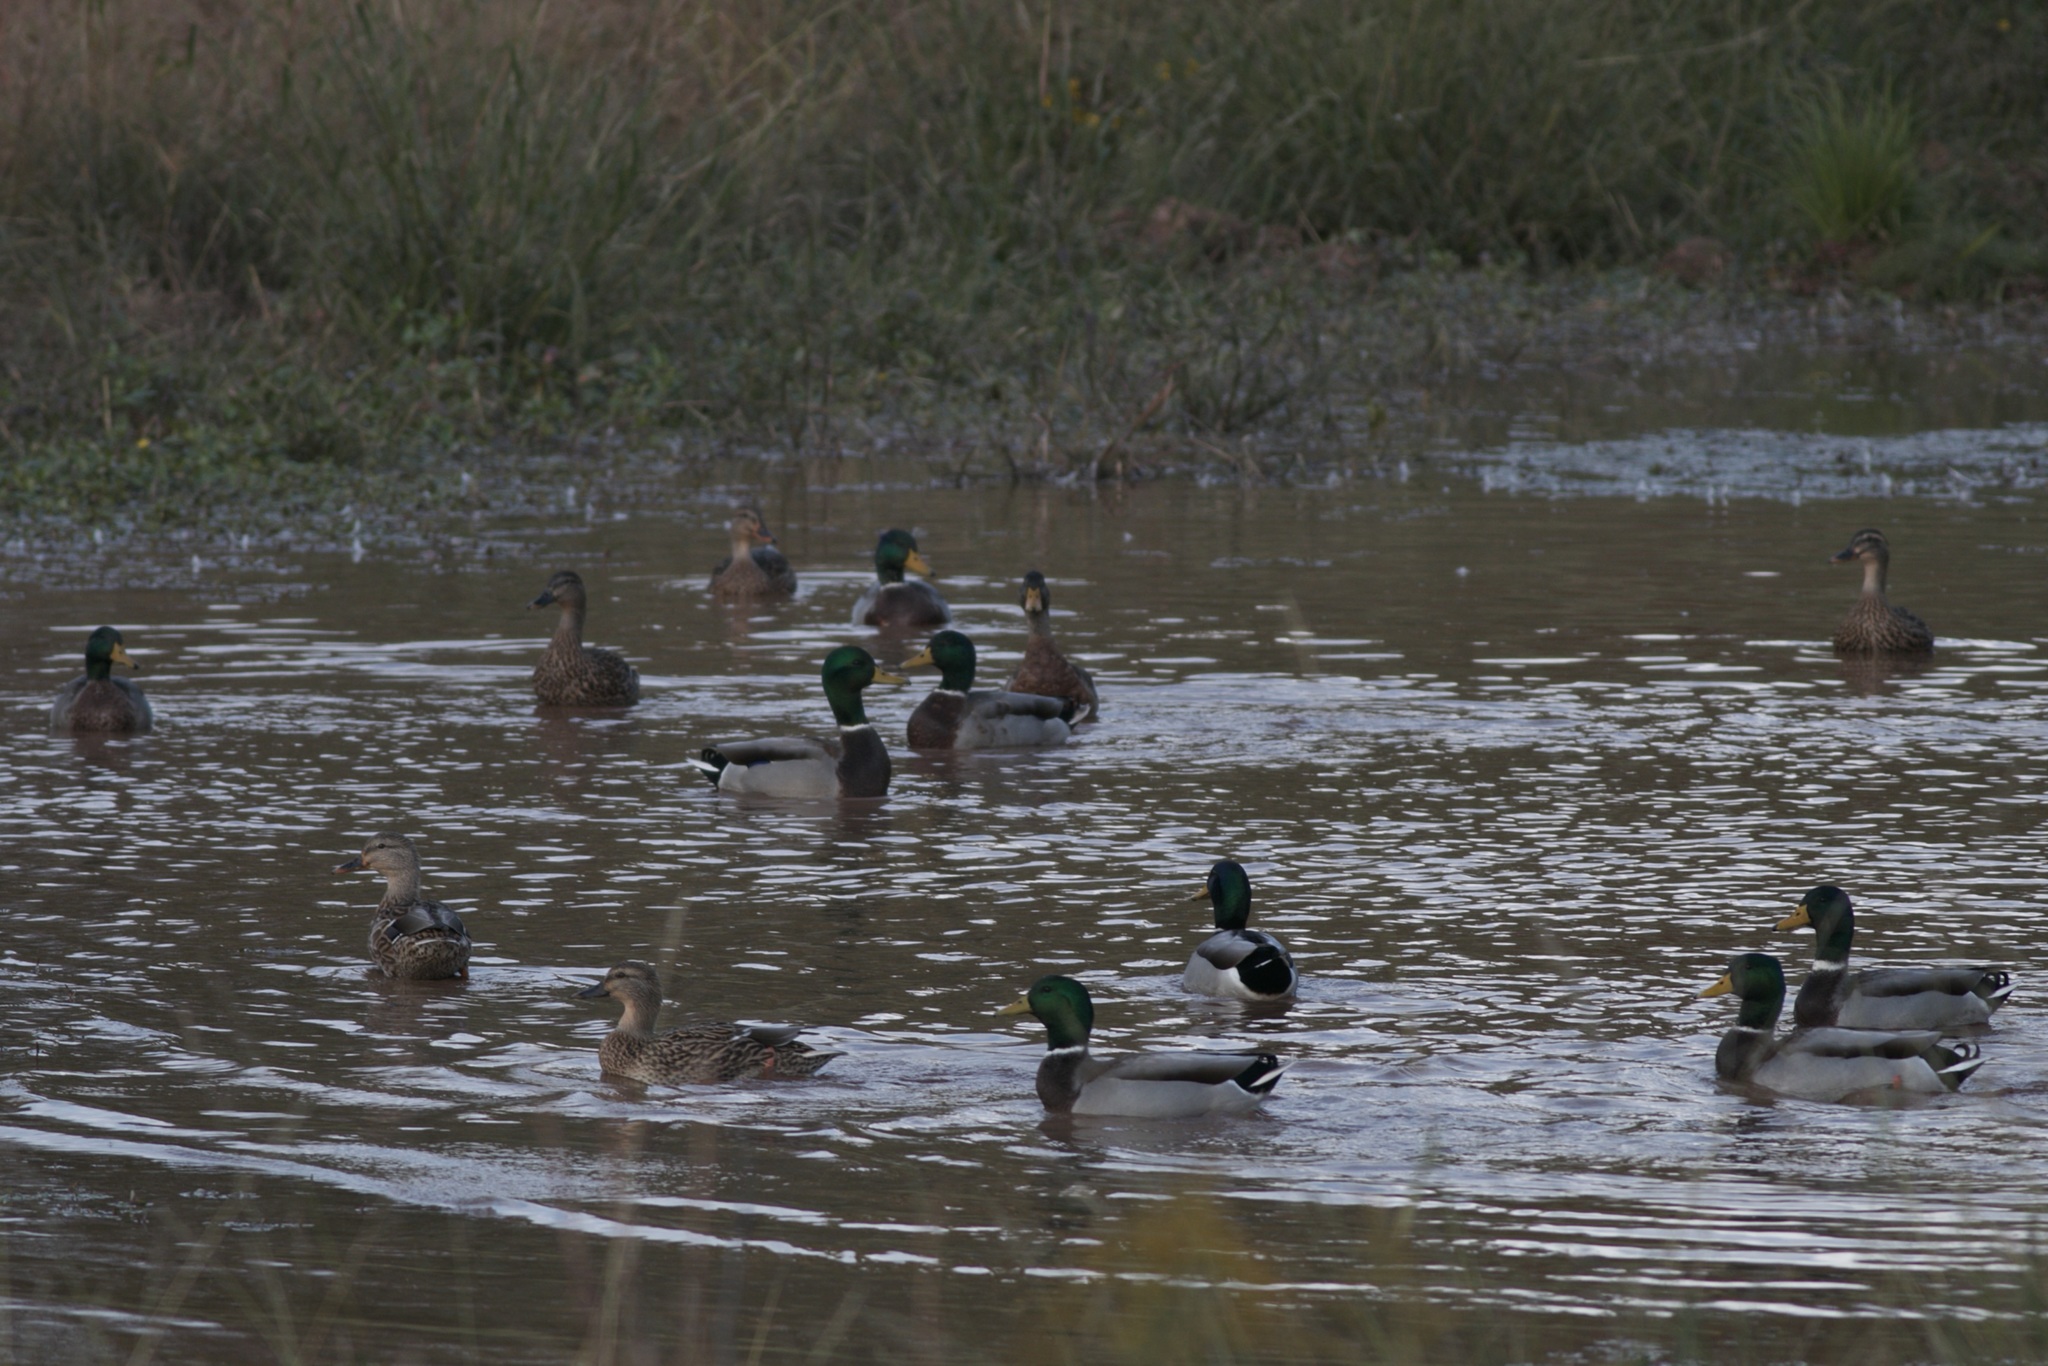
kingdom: Animalia
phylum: Chordata
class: Aves
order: Anseriformes
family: Anatidae
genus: Anas
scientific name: Anas platyrhynchos
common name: Mallard
